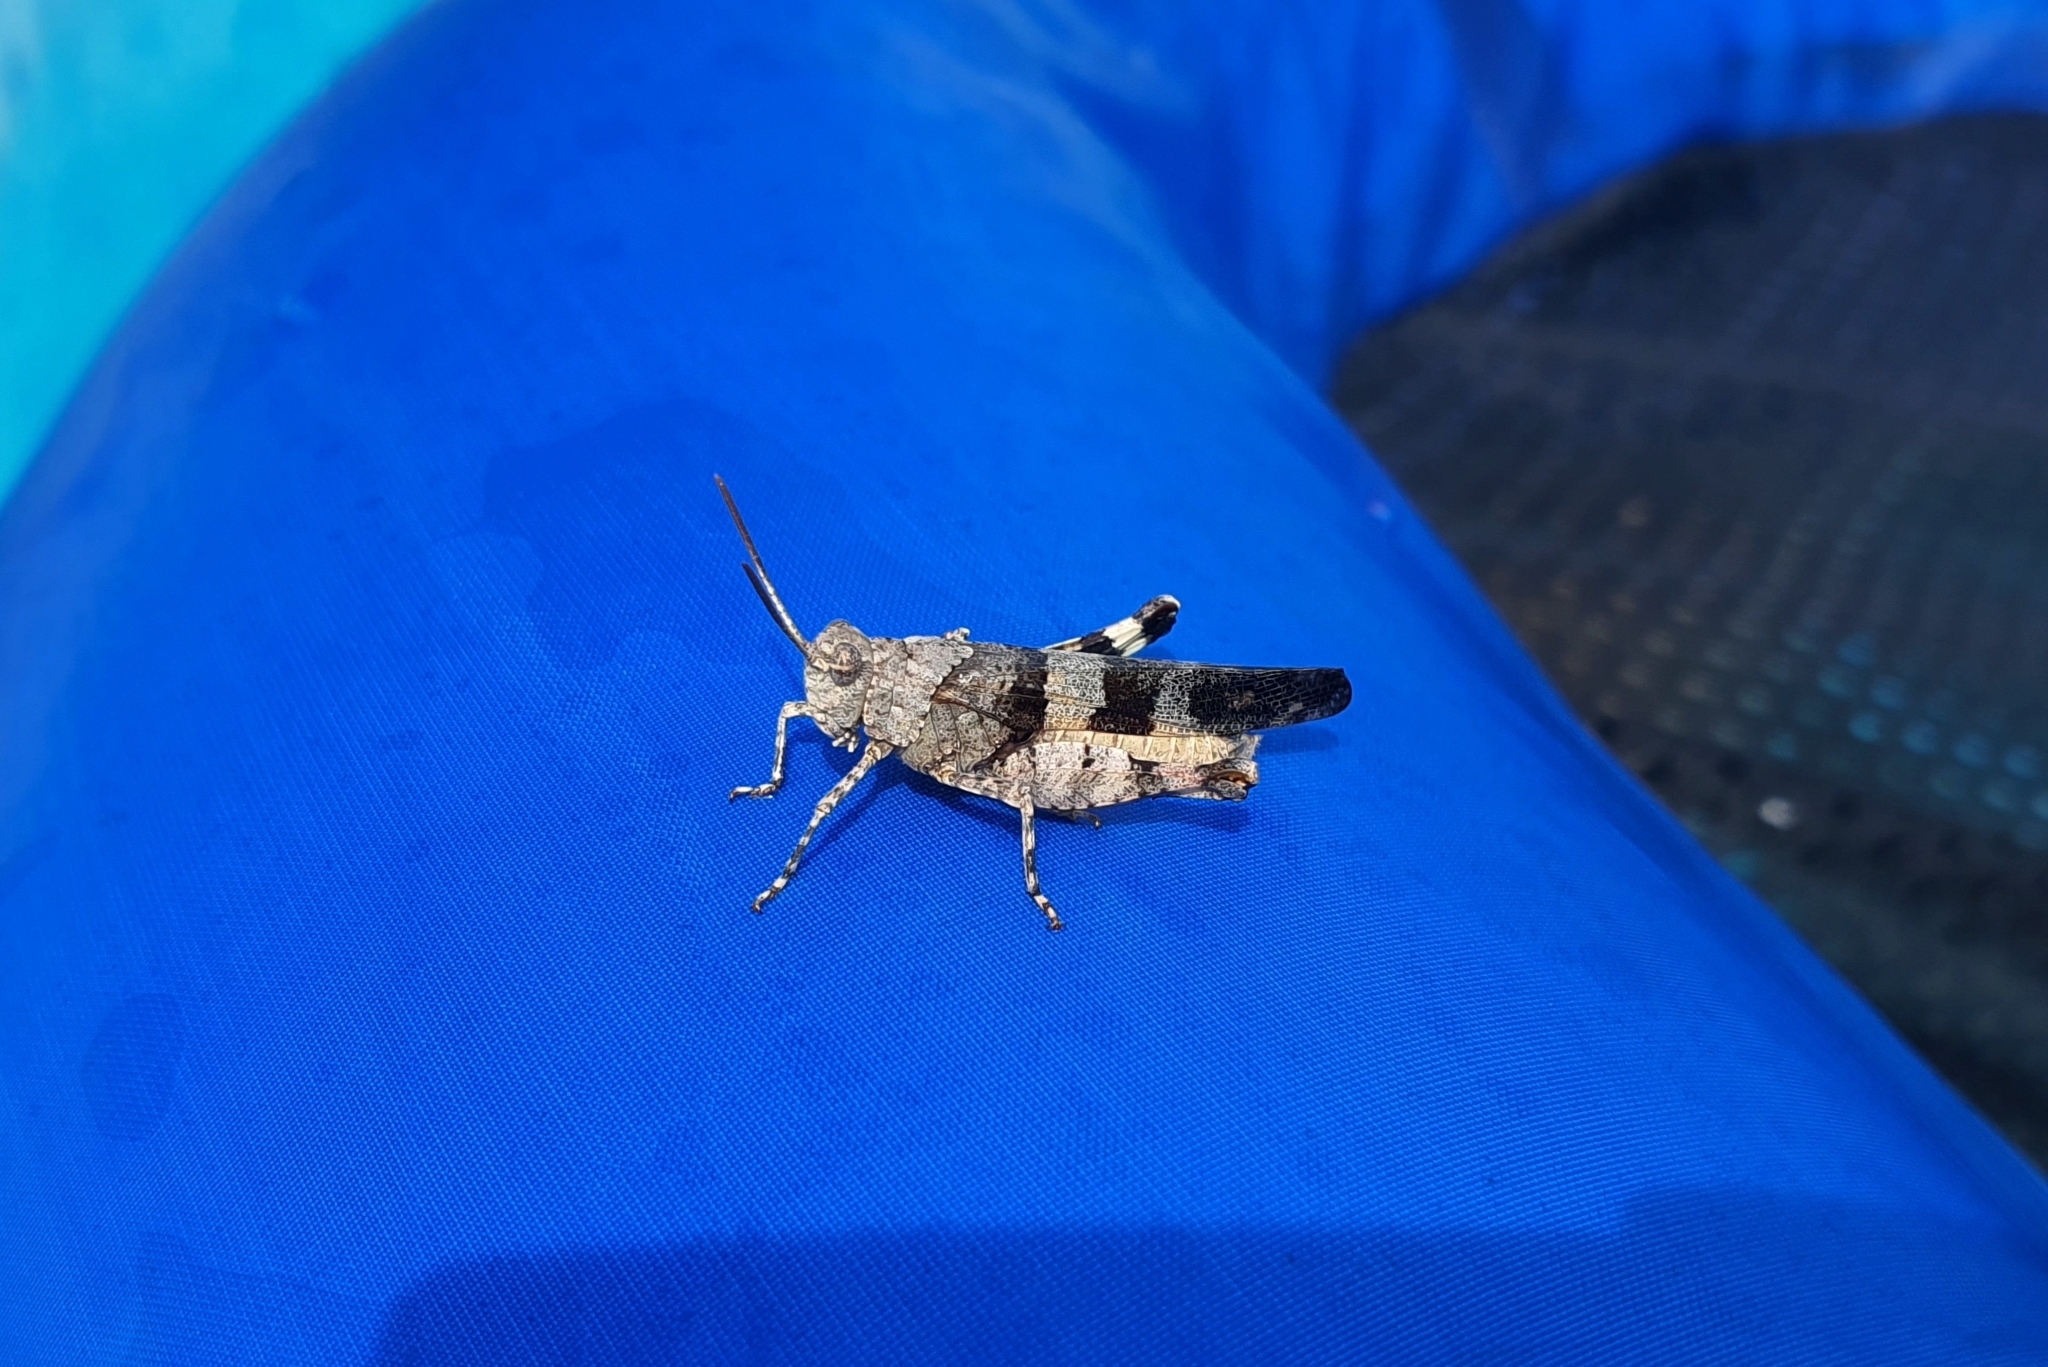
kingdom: Animalia
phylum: Arthropoda
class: Insecta
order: Orthoptera
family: Acrididae
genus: Oedipoda
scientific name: Oedipoda caerulescens
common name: Blue-winged grasshopper
